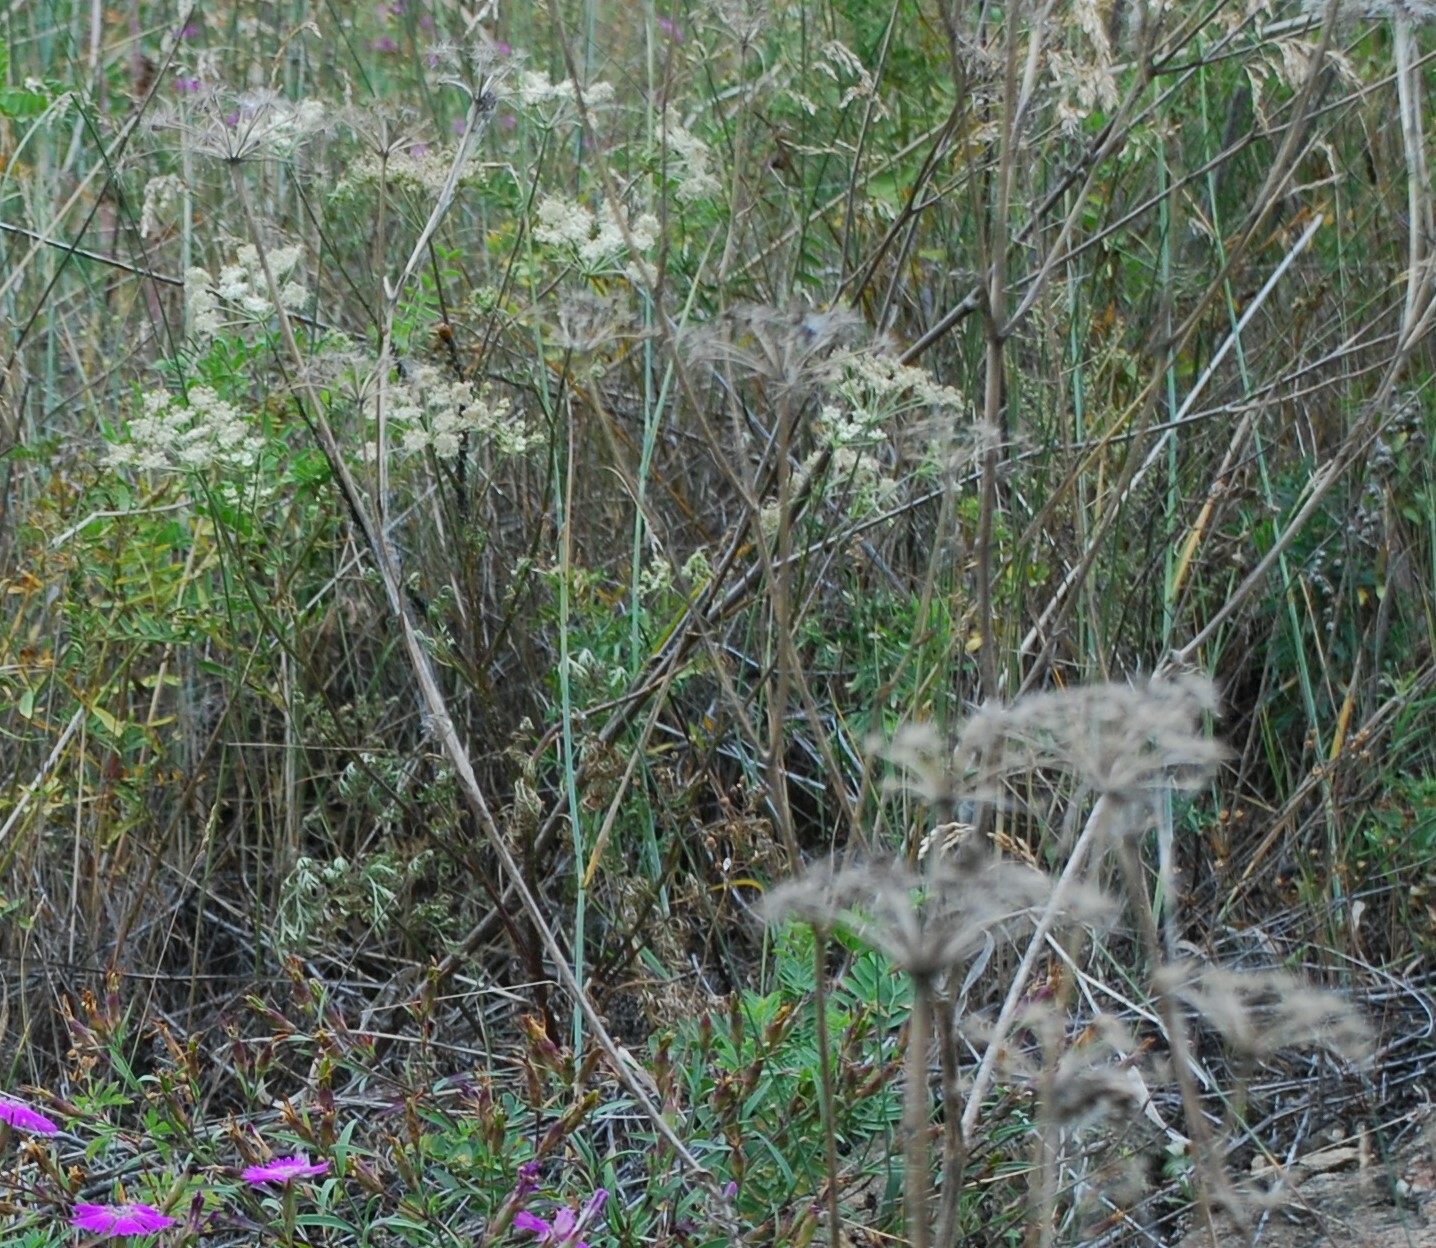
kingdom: Plantae
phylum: Tracheophyta
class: Magnoliopsida
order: Apiales
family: Apiaceae
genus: Kitagawia
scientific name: Kitagawia baicalensis
